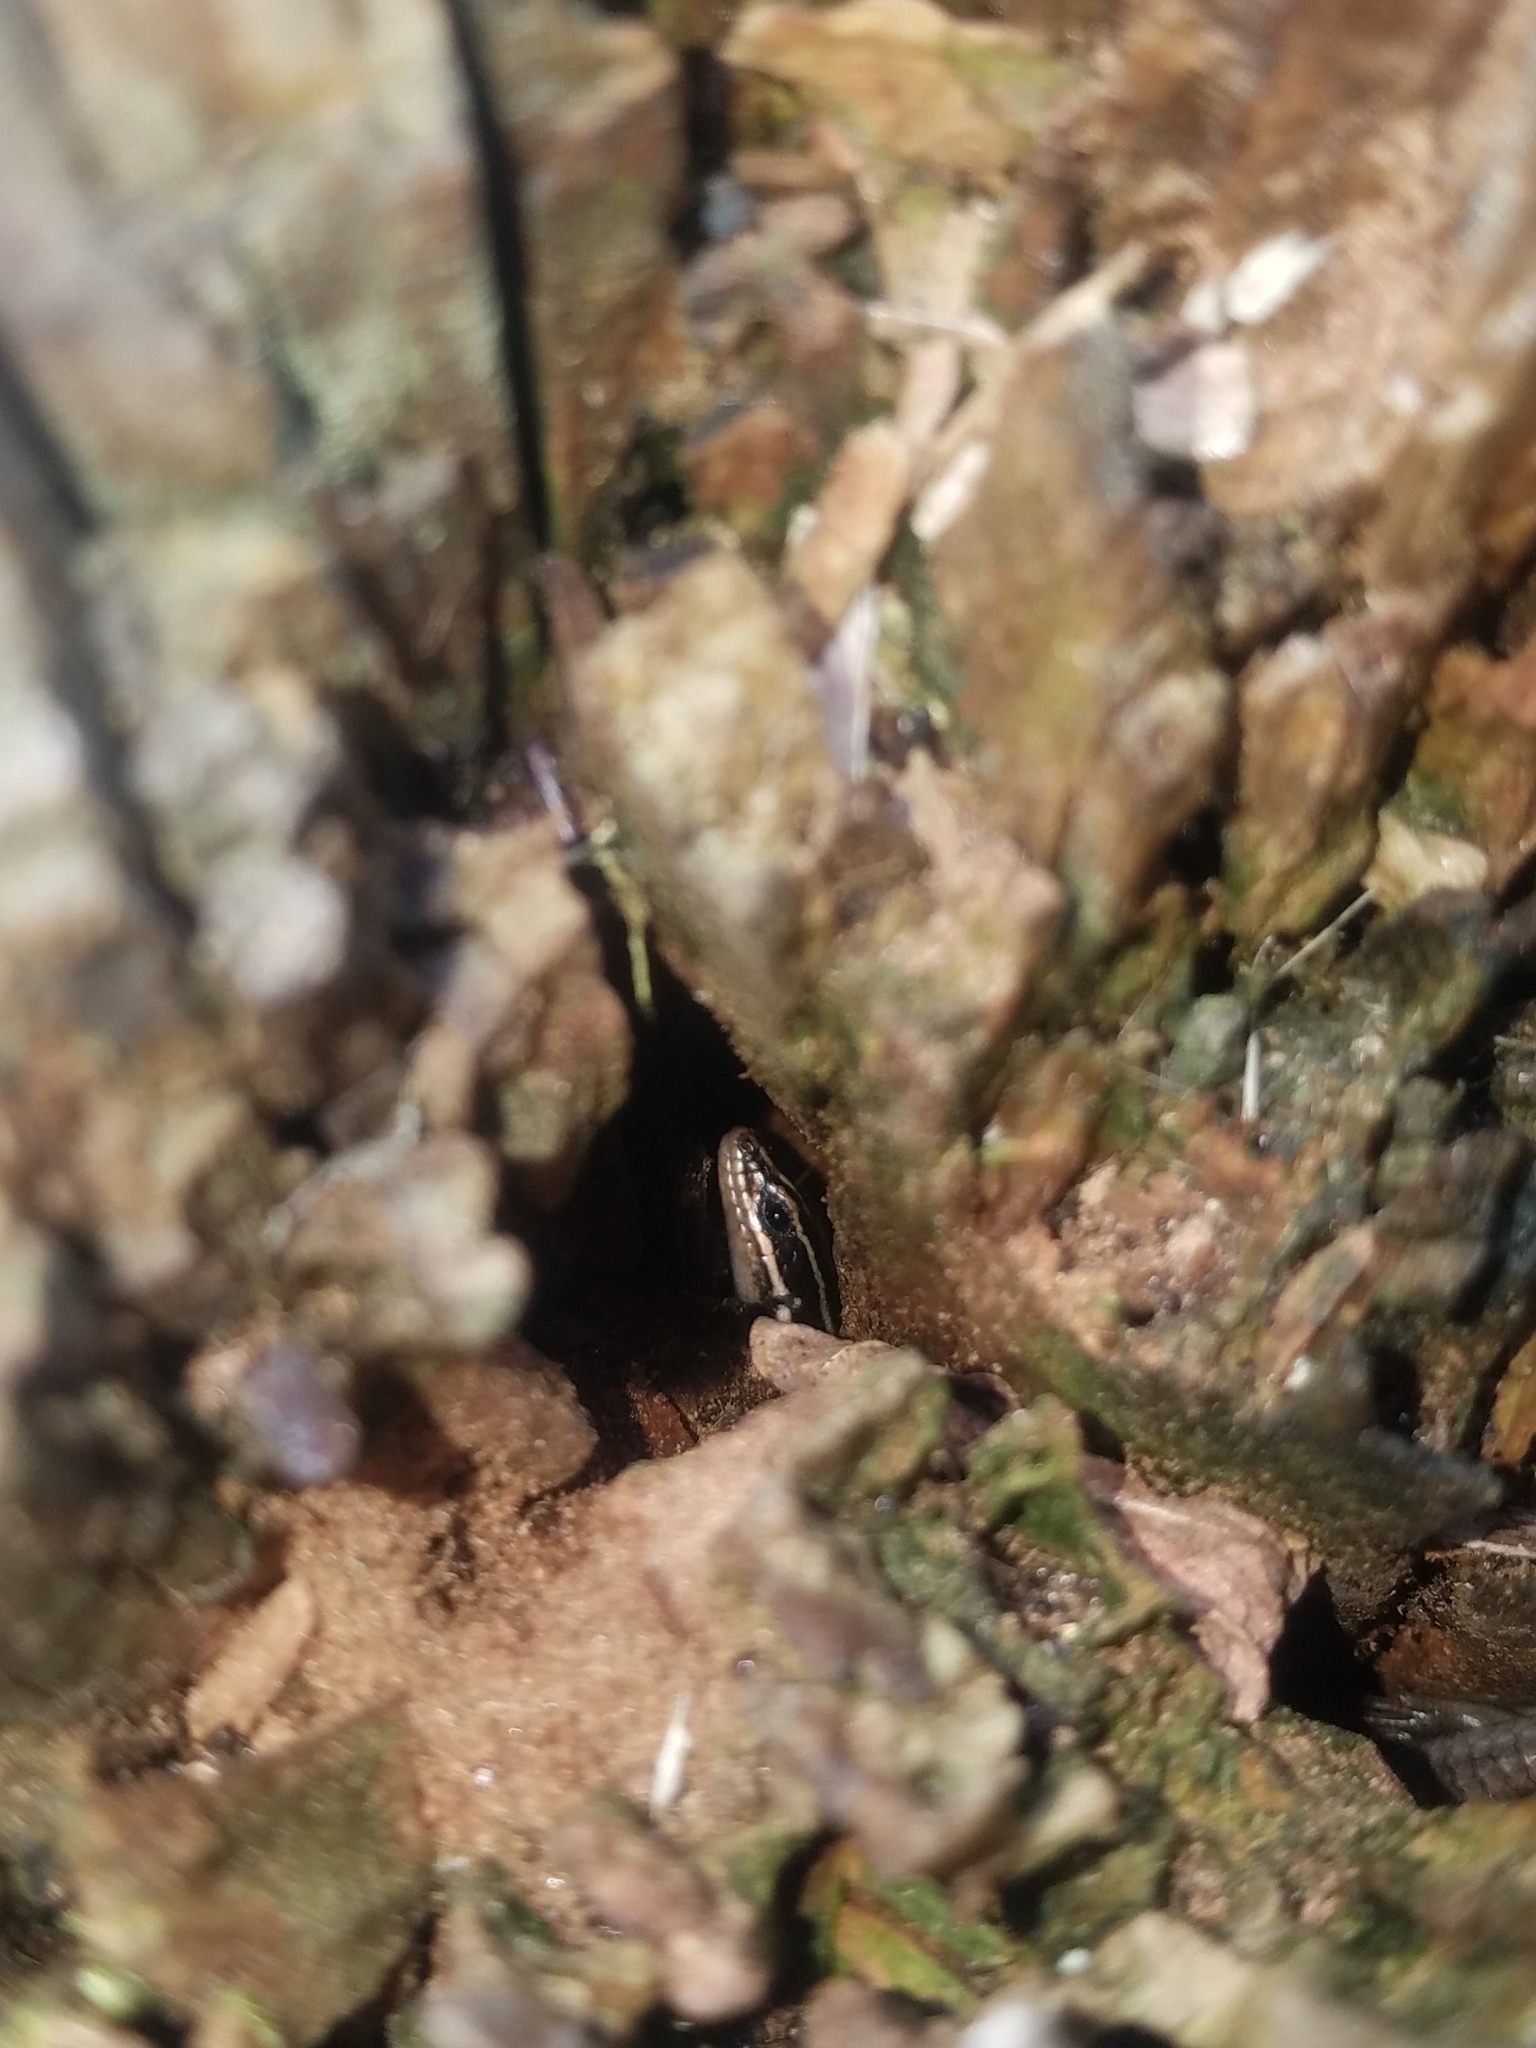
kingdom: Animalia
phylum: Chordata
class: Squamata
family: Scincidae
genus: Plestiodon
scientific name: Plestiodon fasciatus
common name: Five-lined skink
